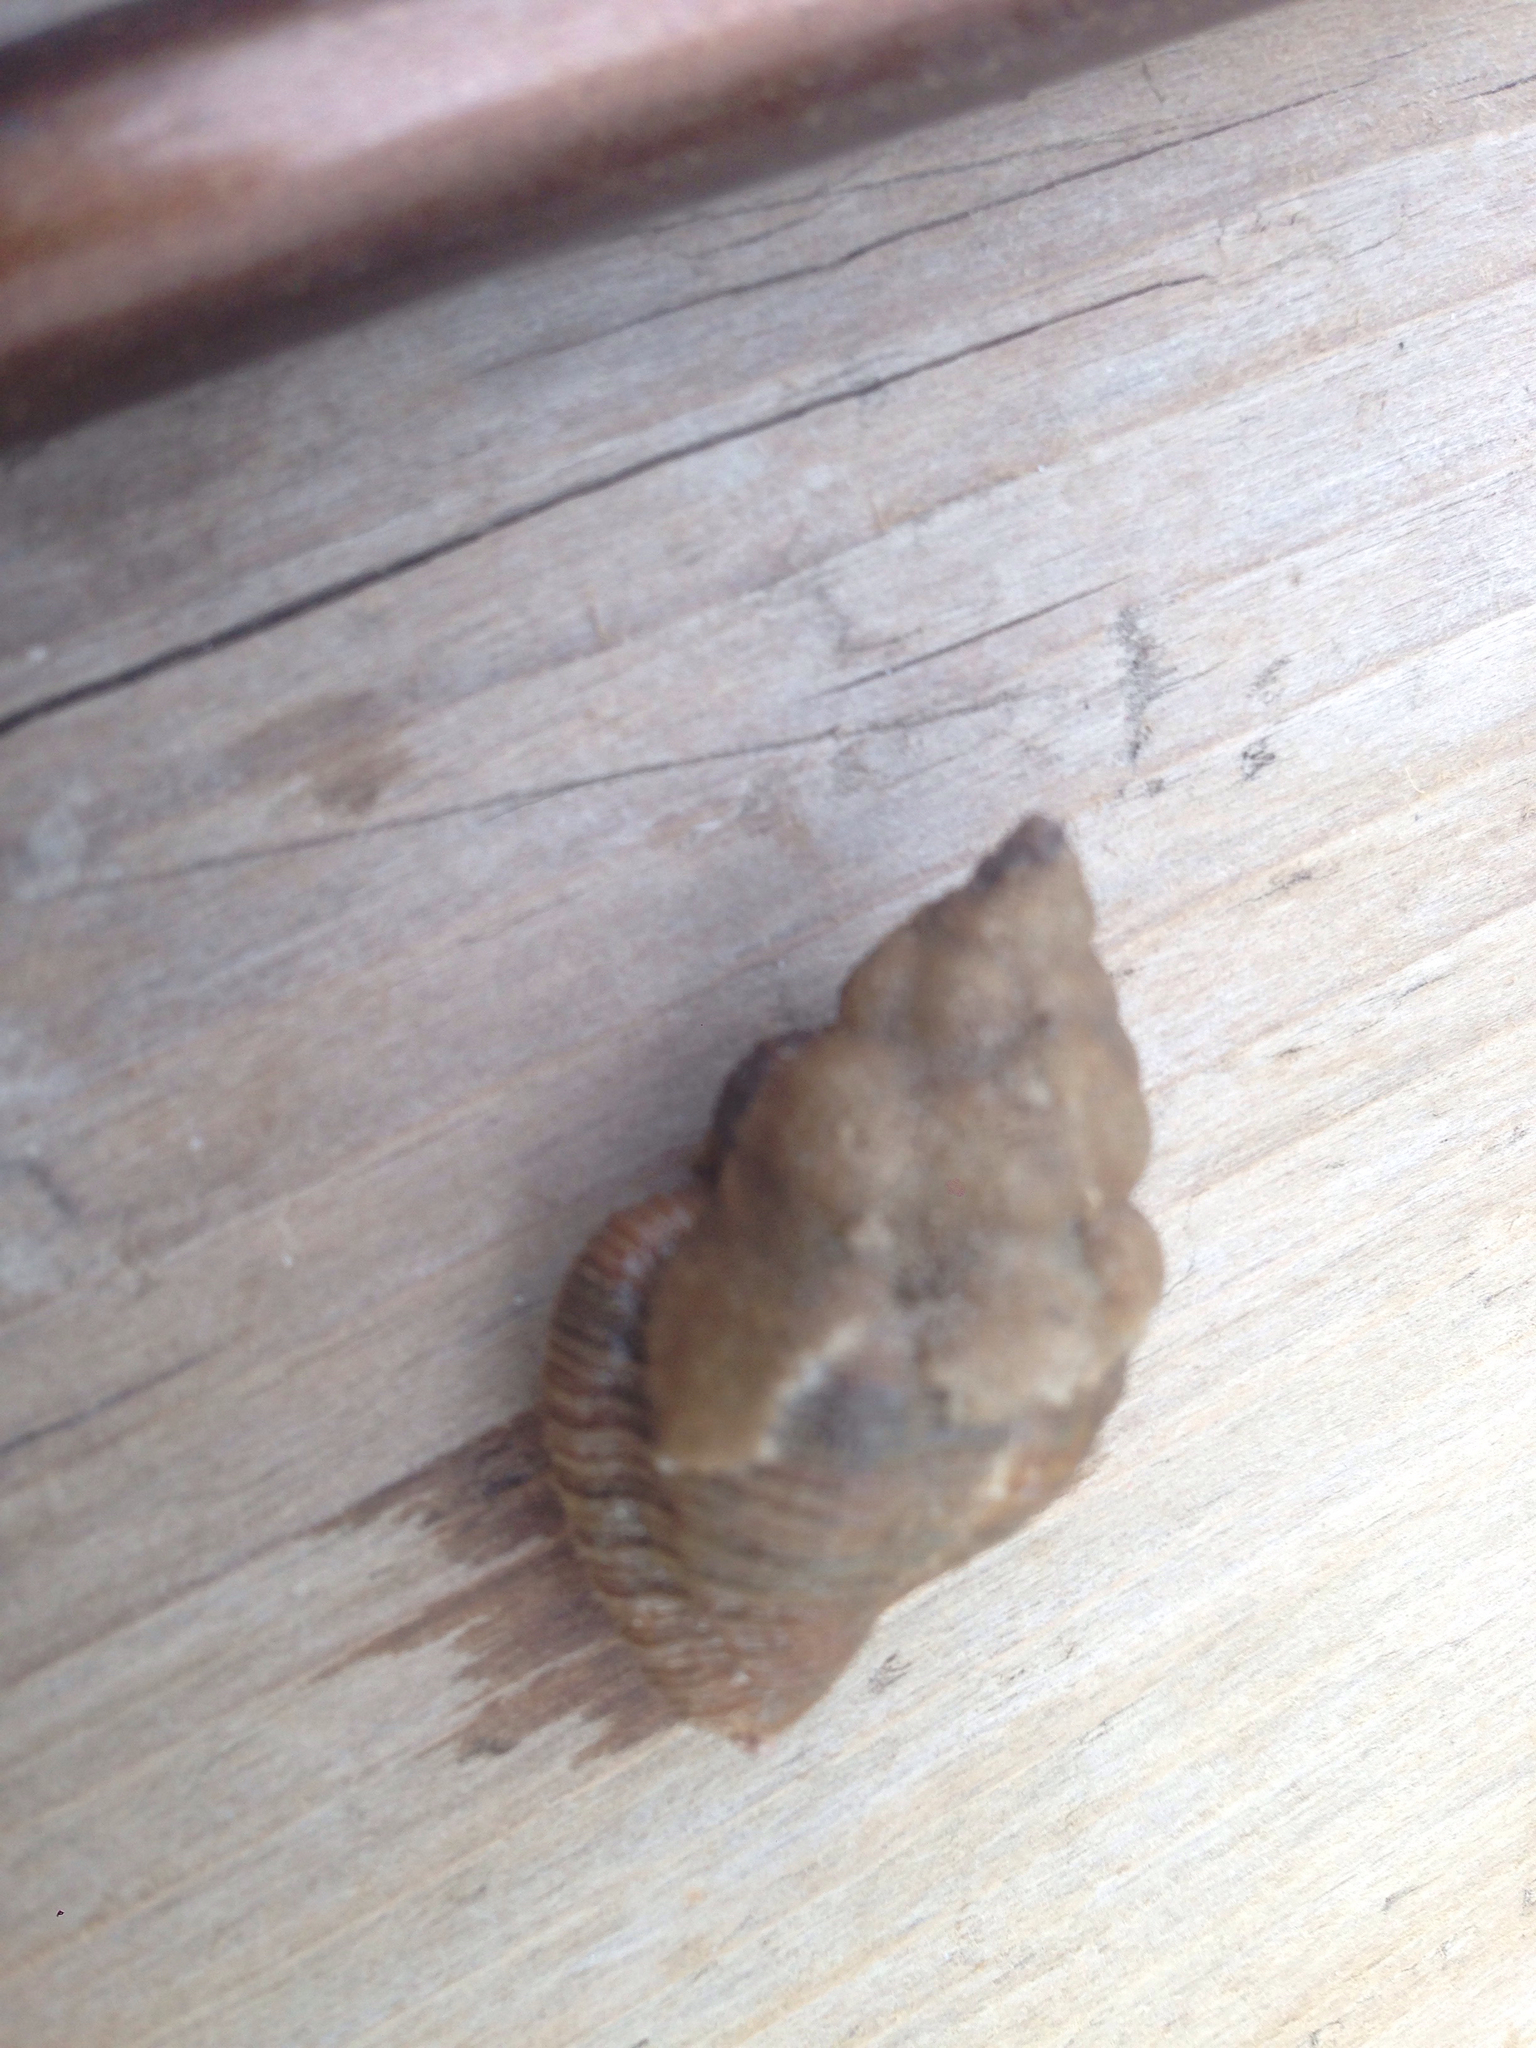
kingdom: Animalia
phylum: Mollusca
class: Gastropoda
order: Neogastropoda
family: Pisaniidae
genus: Cantharus
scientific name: Cantharus cecillei
